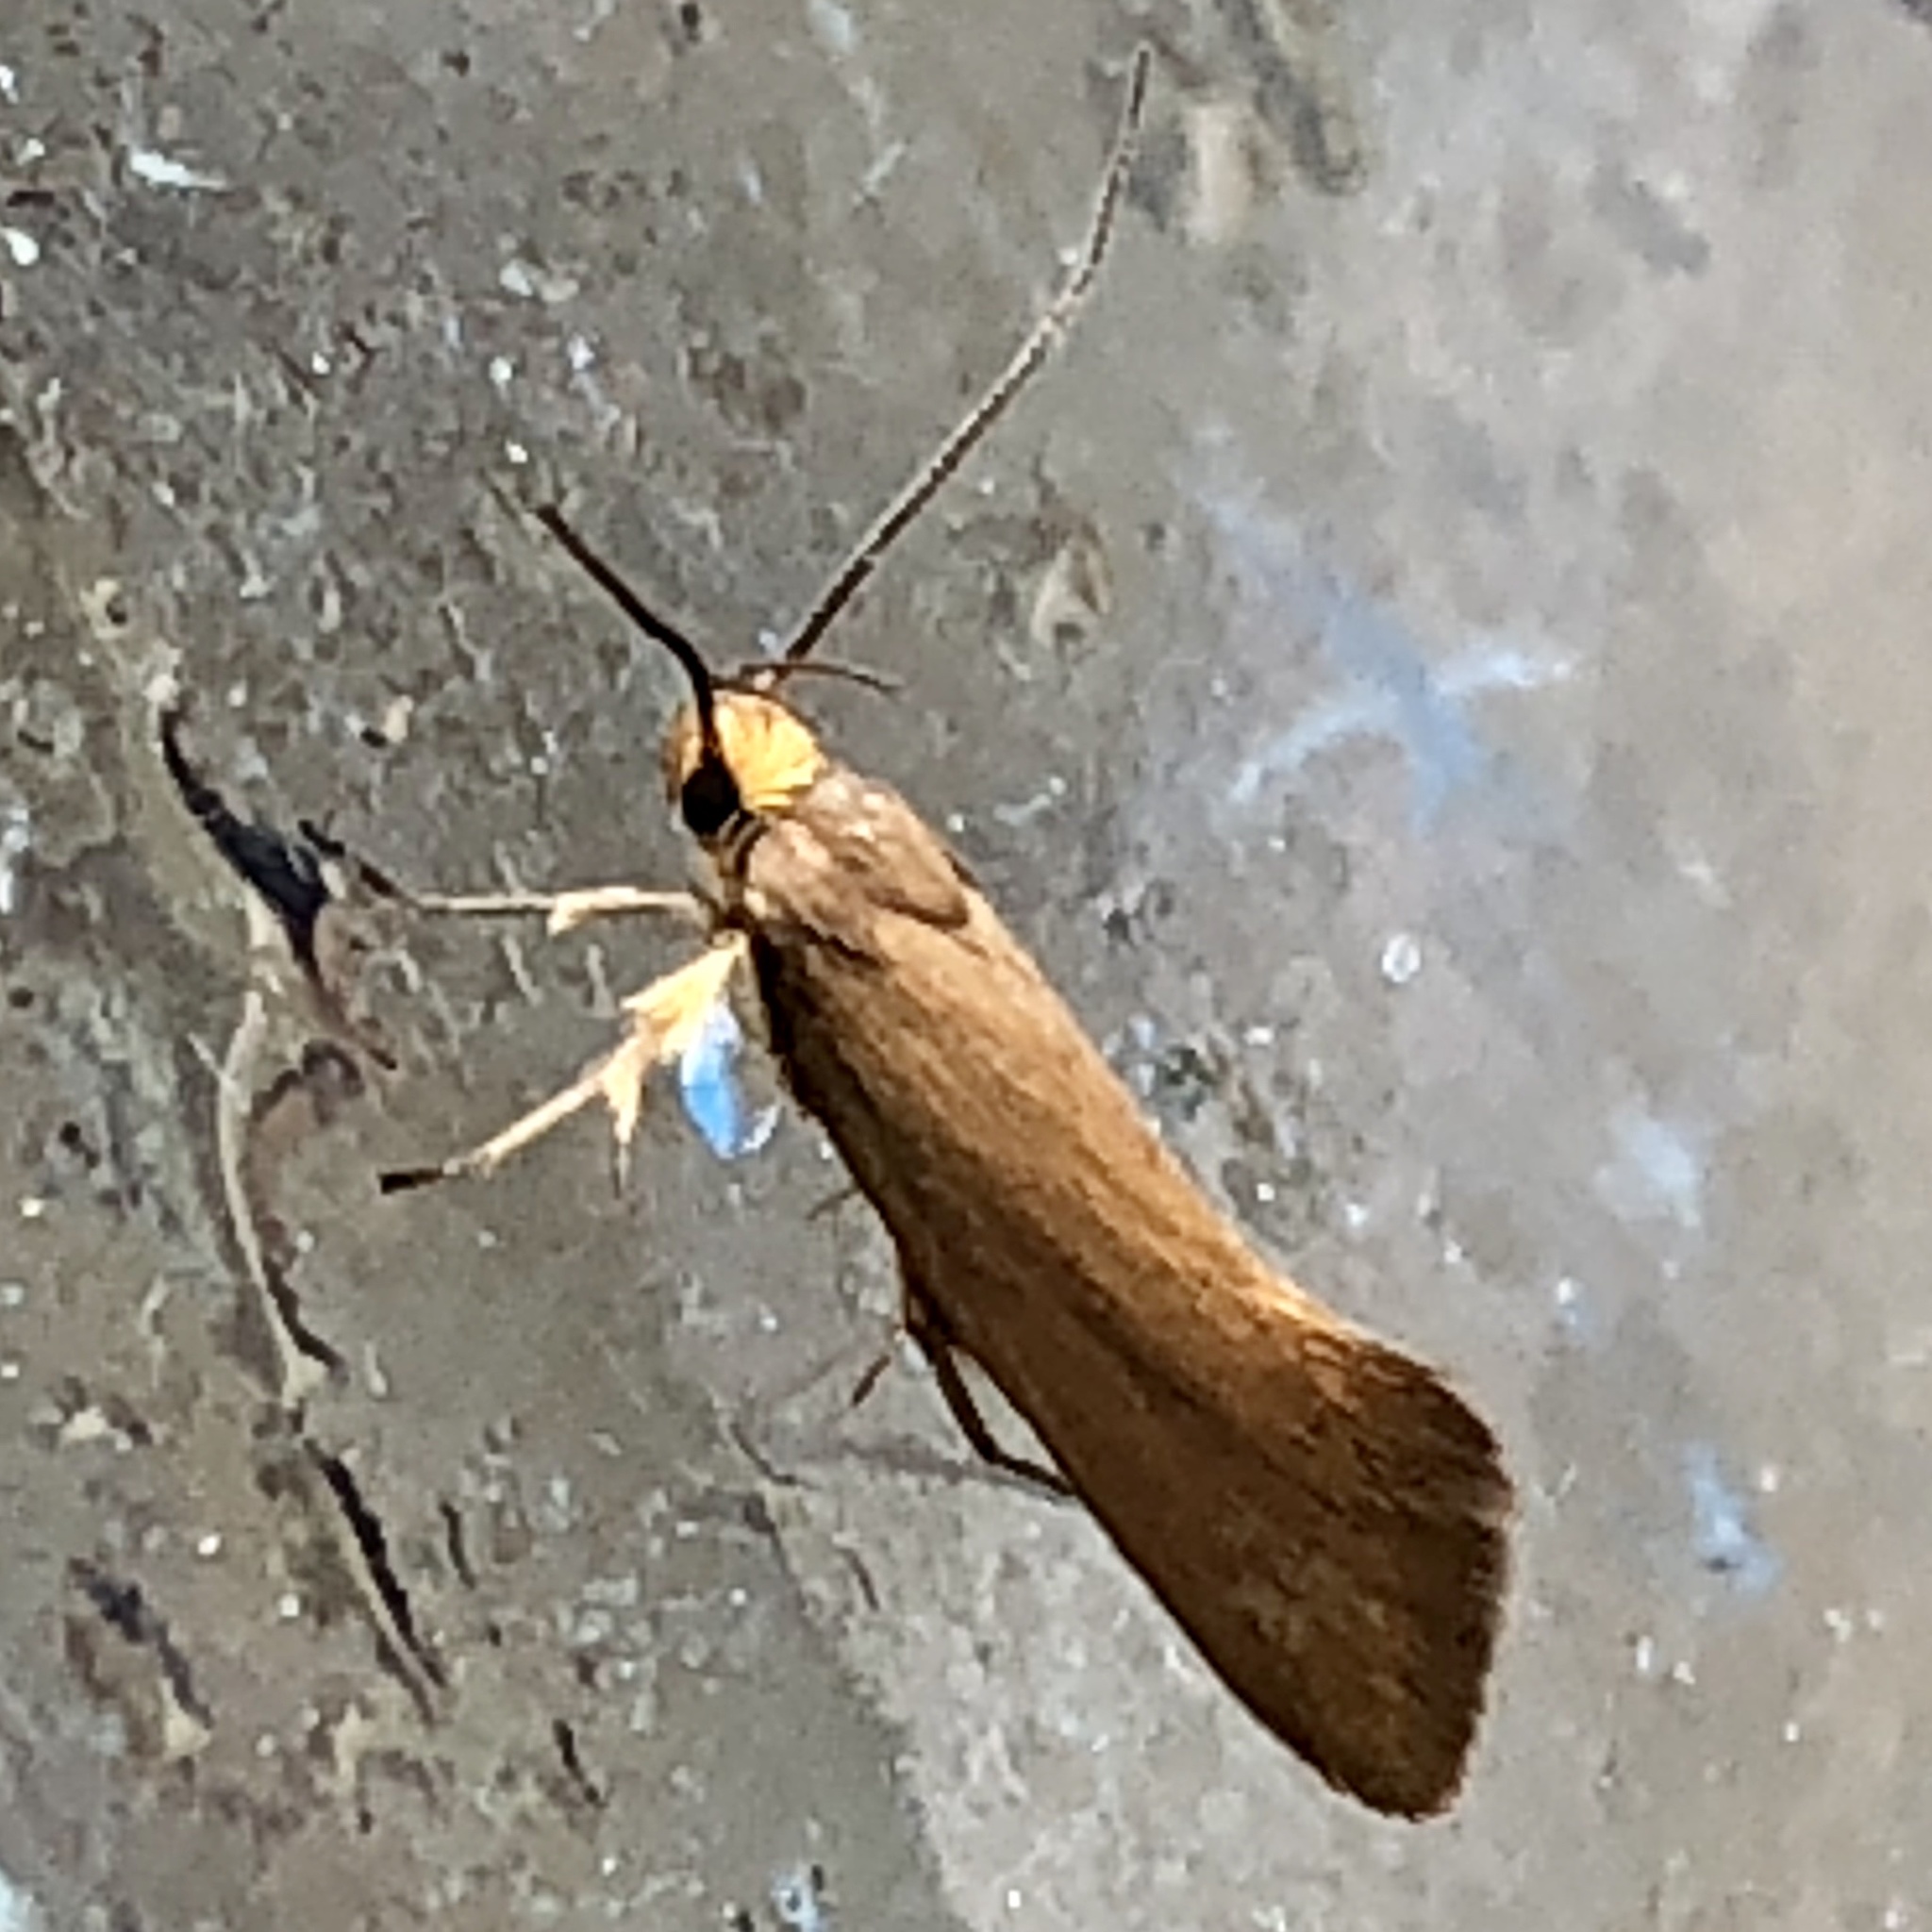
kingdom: Animalia
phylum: Arthropoda
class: Insecta
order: Lepidoptera
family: Oecophoridae
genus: Borkhausenia
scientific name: Borkhausenia Crassa unitella
